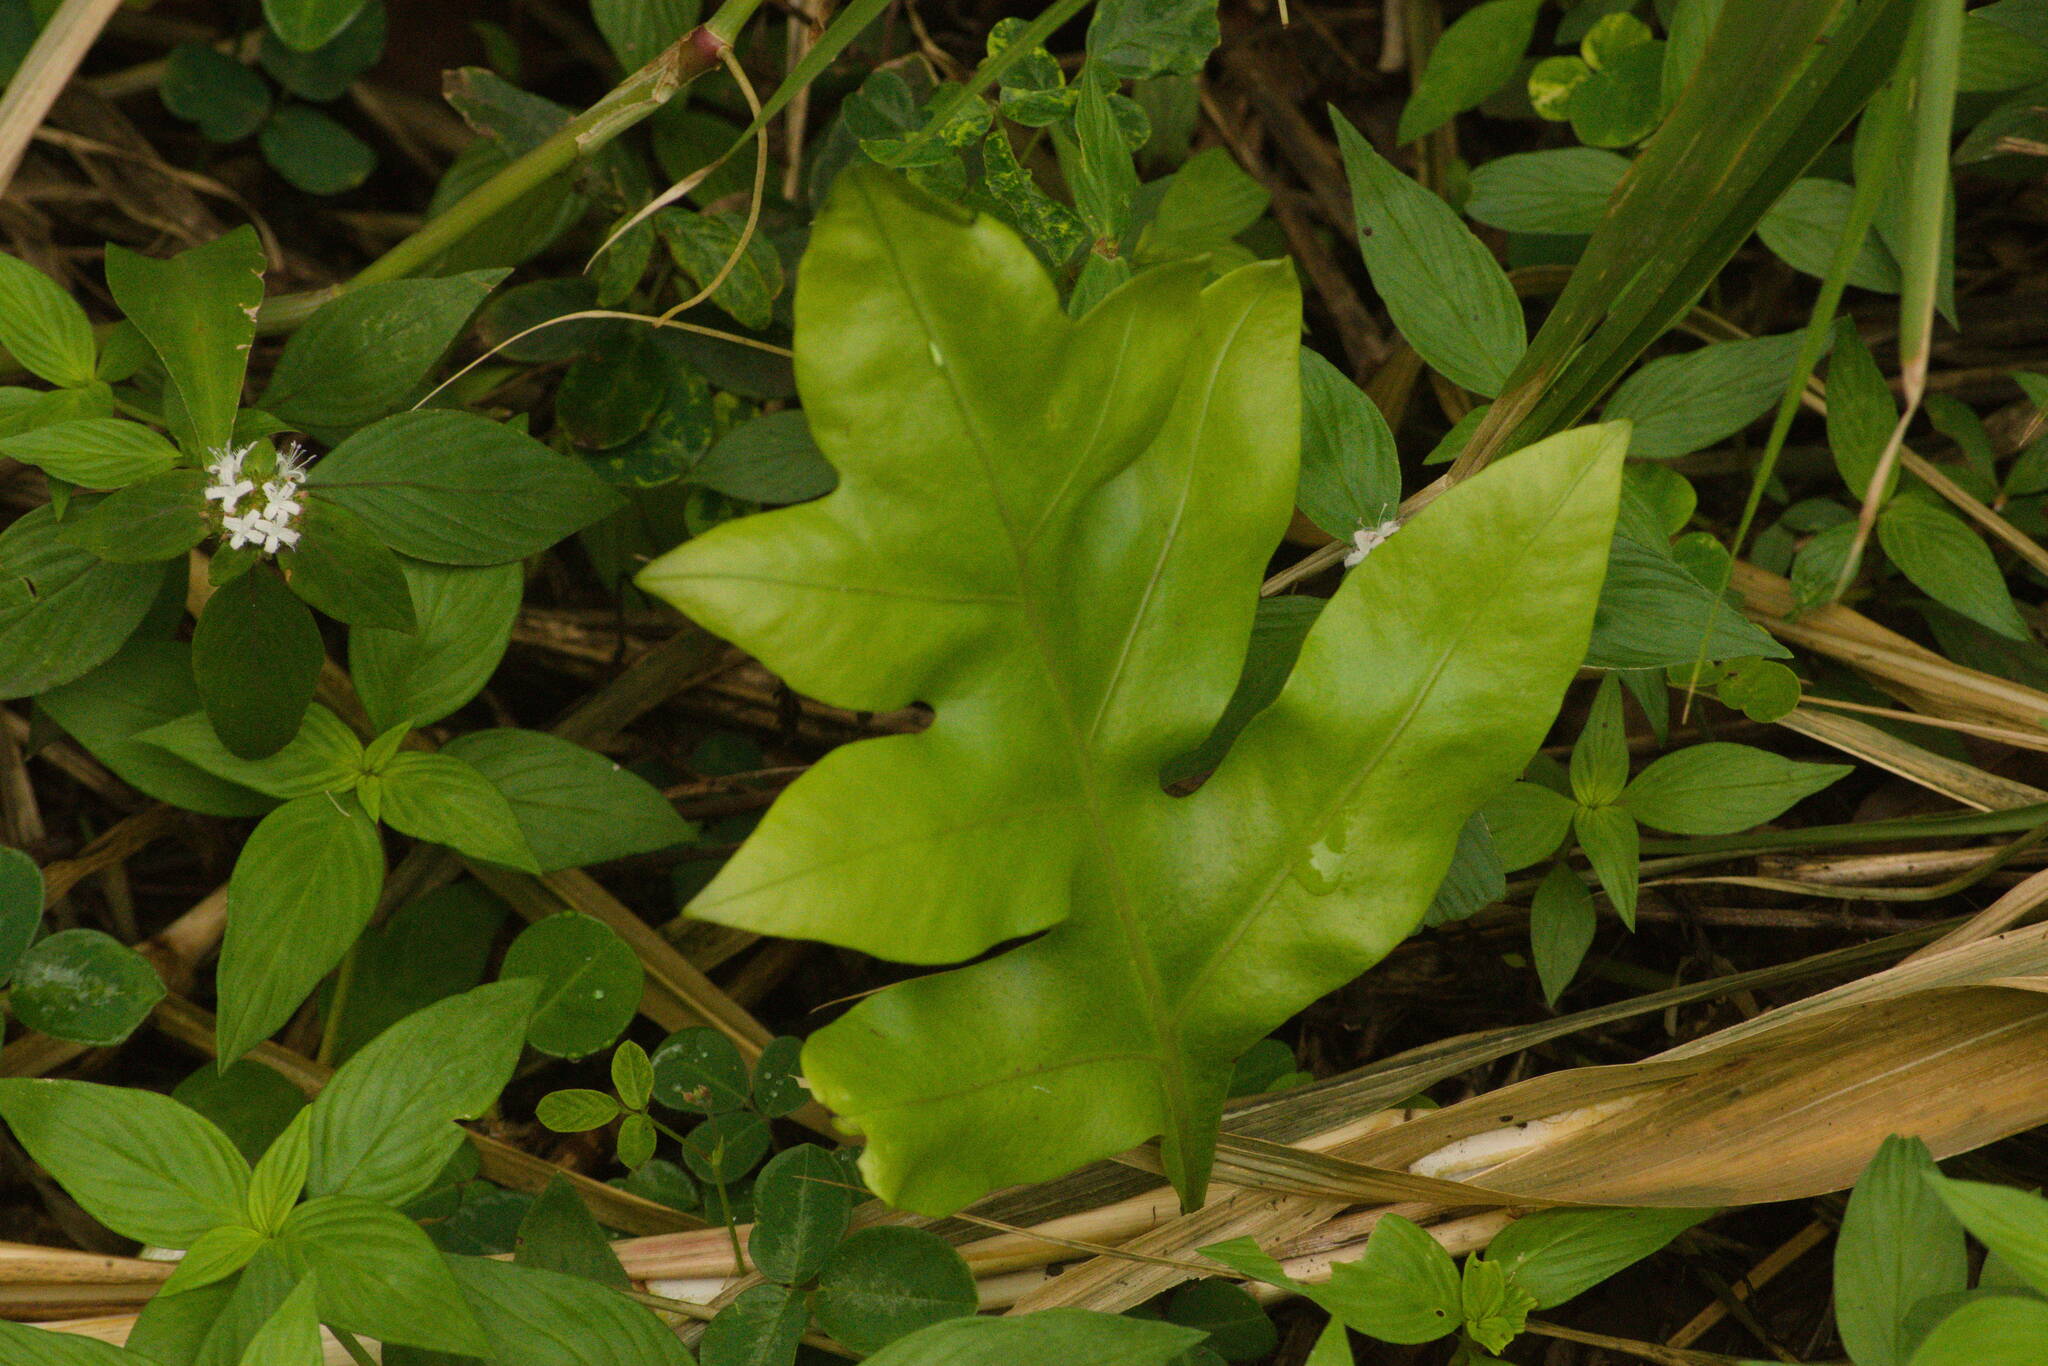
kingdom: Plantae
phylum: Tracheophyta
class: Polypodiopsida
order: Polypodiales
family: Polypodiaceae
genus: Microsorum
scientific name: Microsorum grossum
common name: Musk fern
